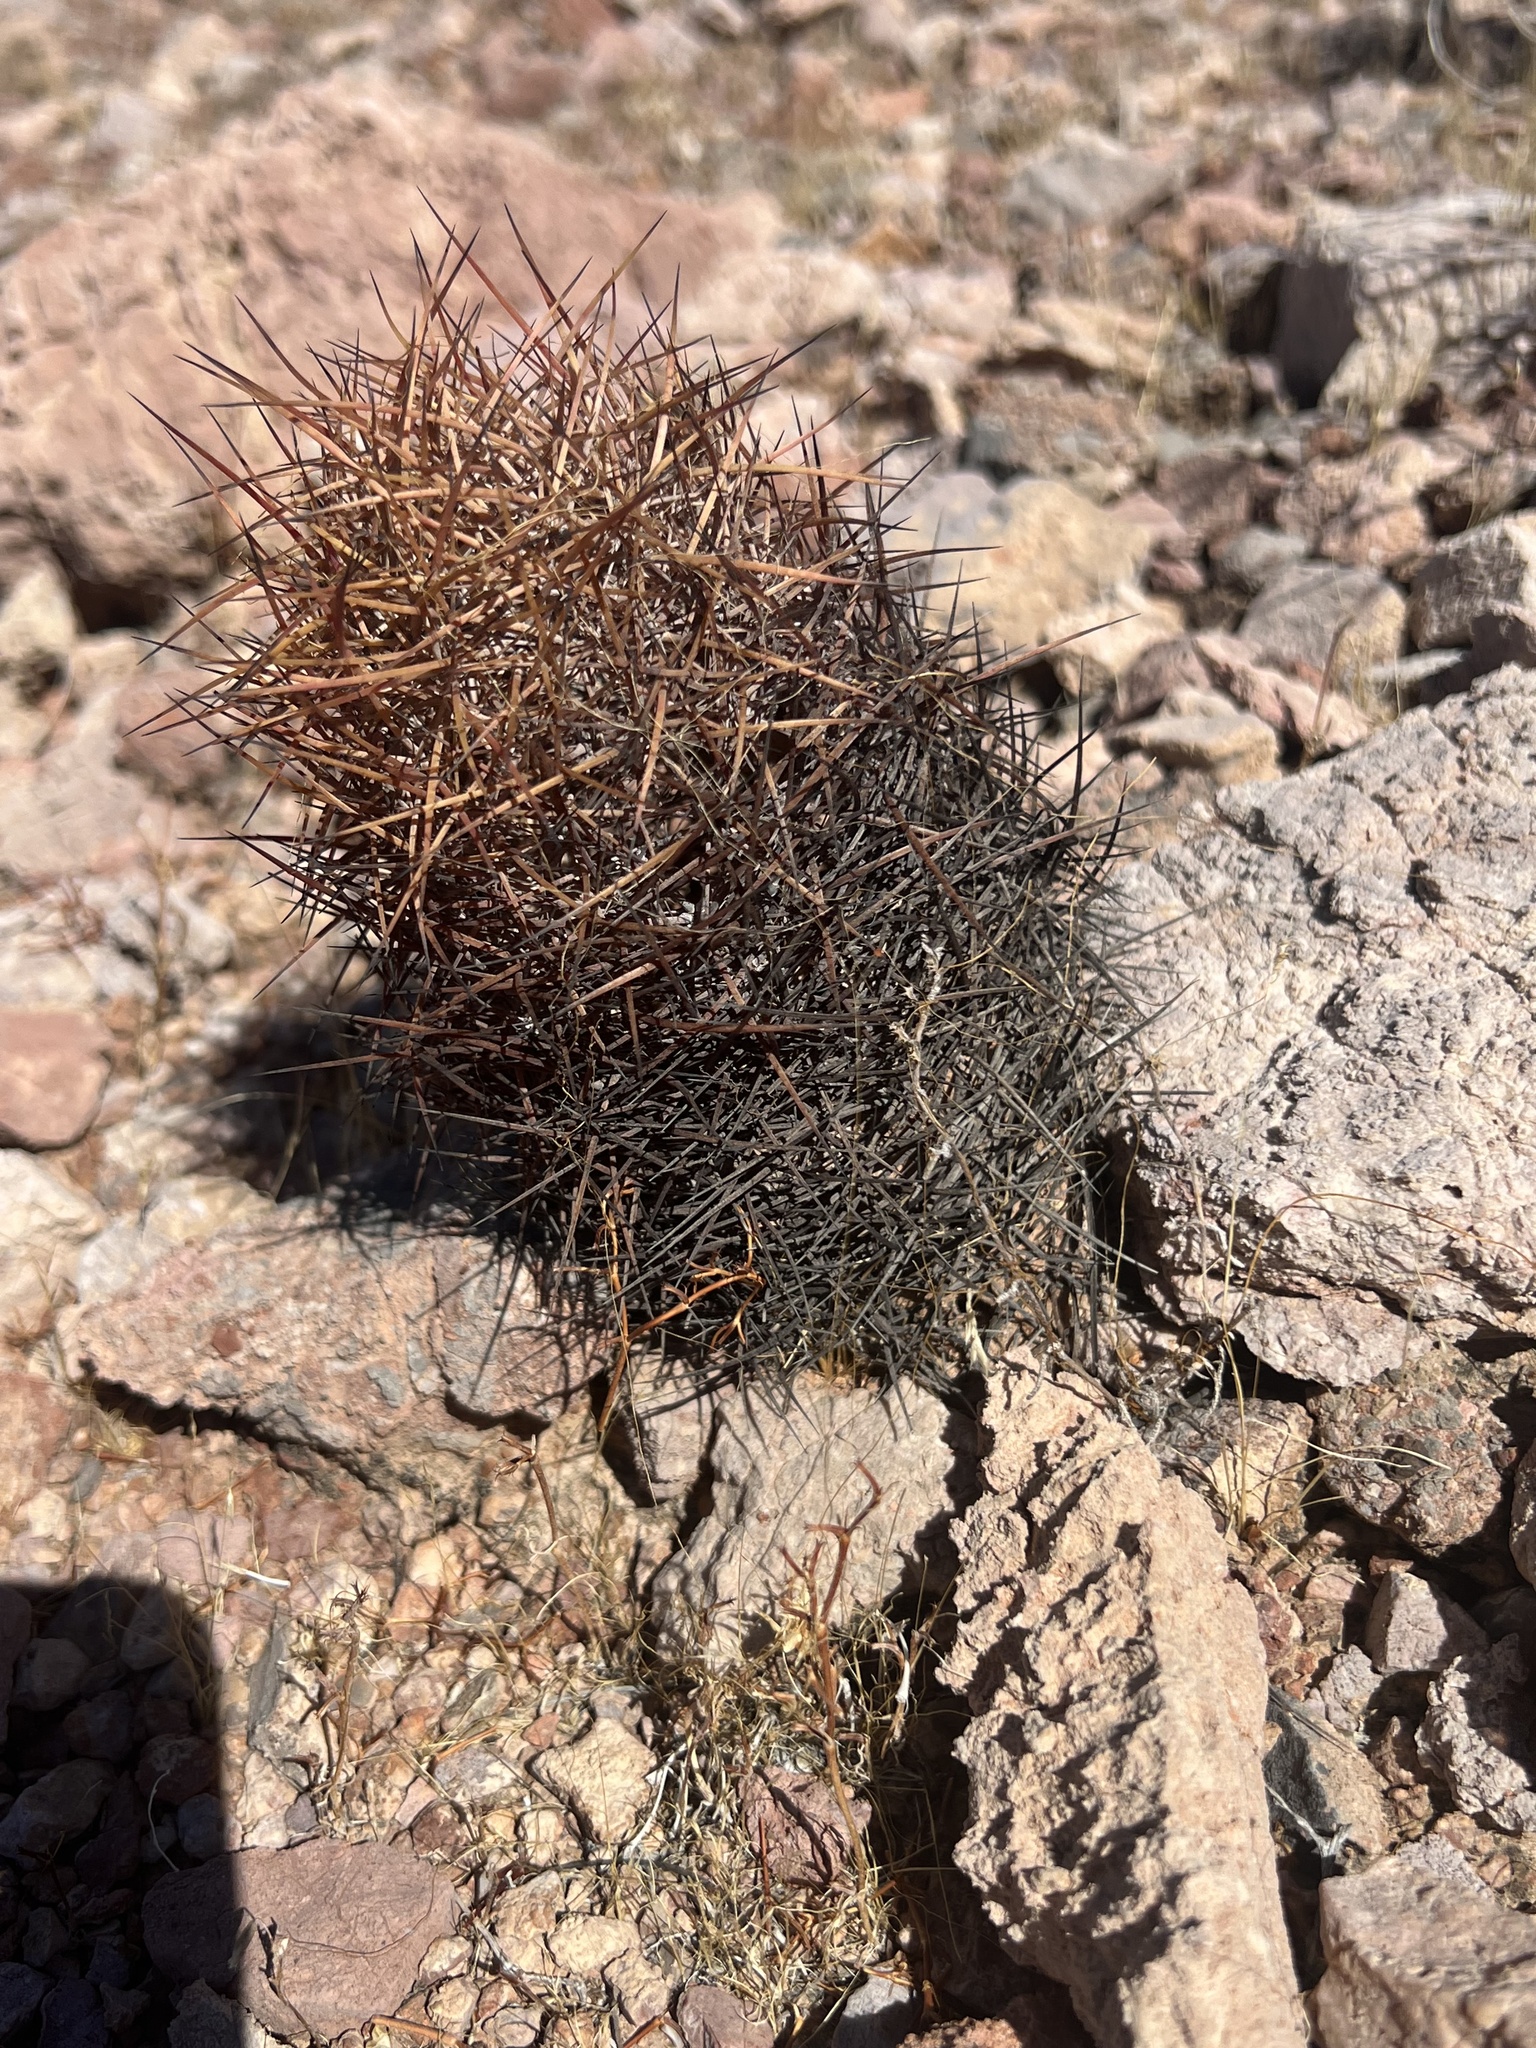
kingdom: Plantae
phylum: Tracheophyta
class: Magnoliopsida
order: Caryophyllales
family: Cactaceae
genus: Sclerocactus
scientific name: Sclerocactus johnsonii
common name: Eight-spine fishhook cactus
